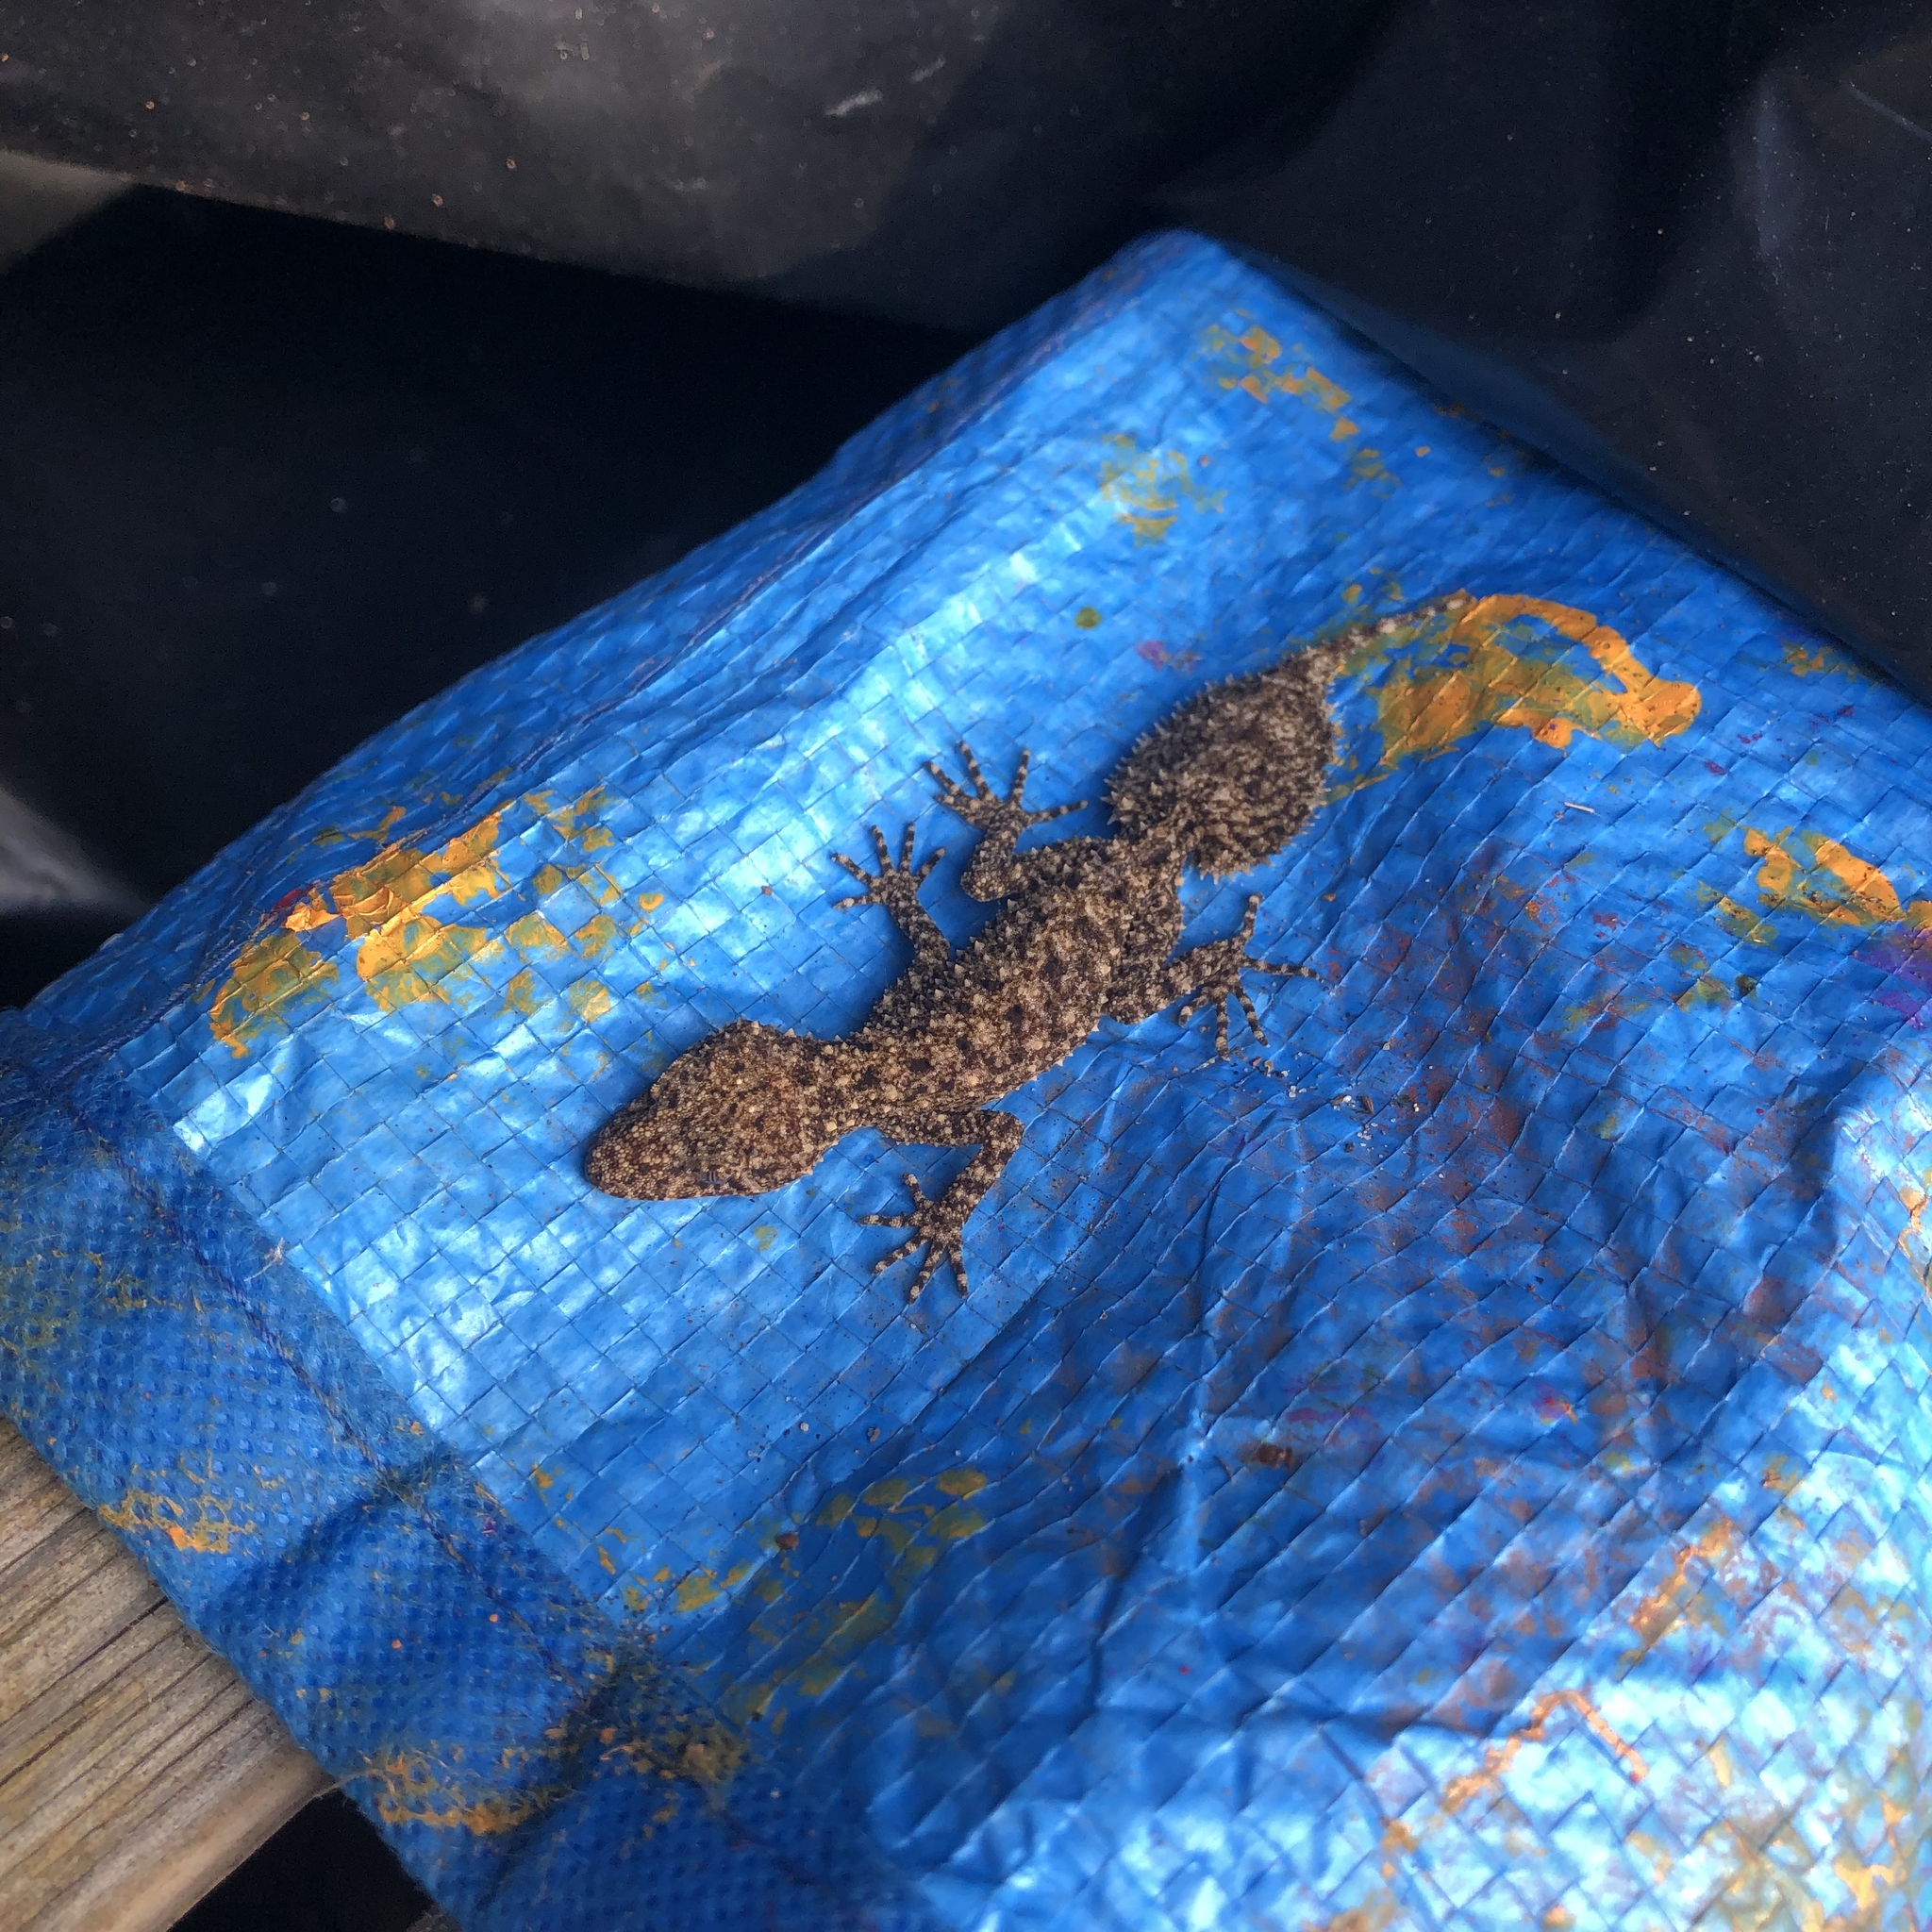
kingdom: Animalia
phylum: Chordata
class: Squamata
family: Carphodactylidae
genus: Phyllurus
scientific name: Phyllurus platurus
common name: Broad-tailed gecko
